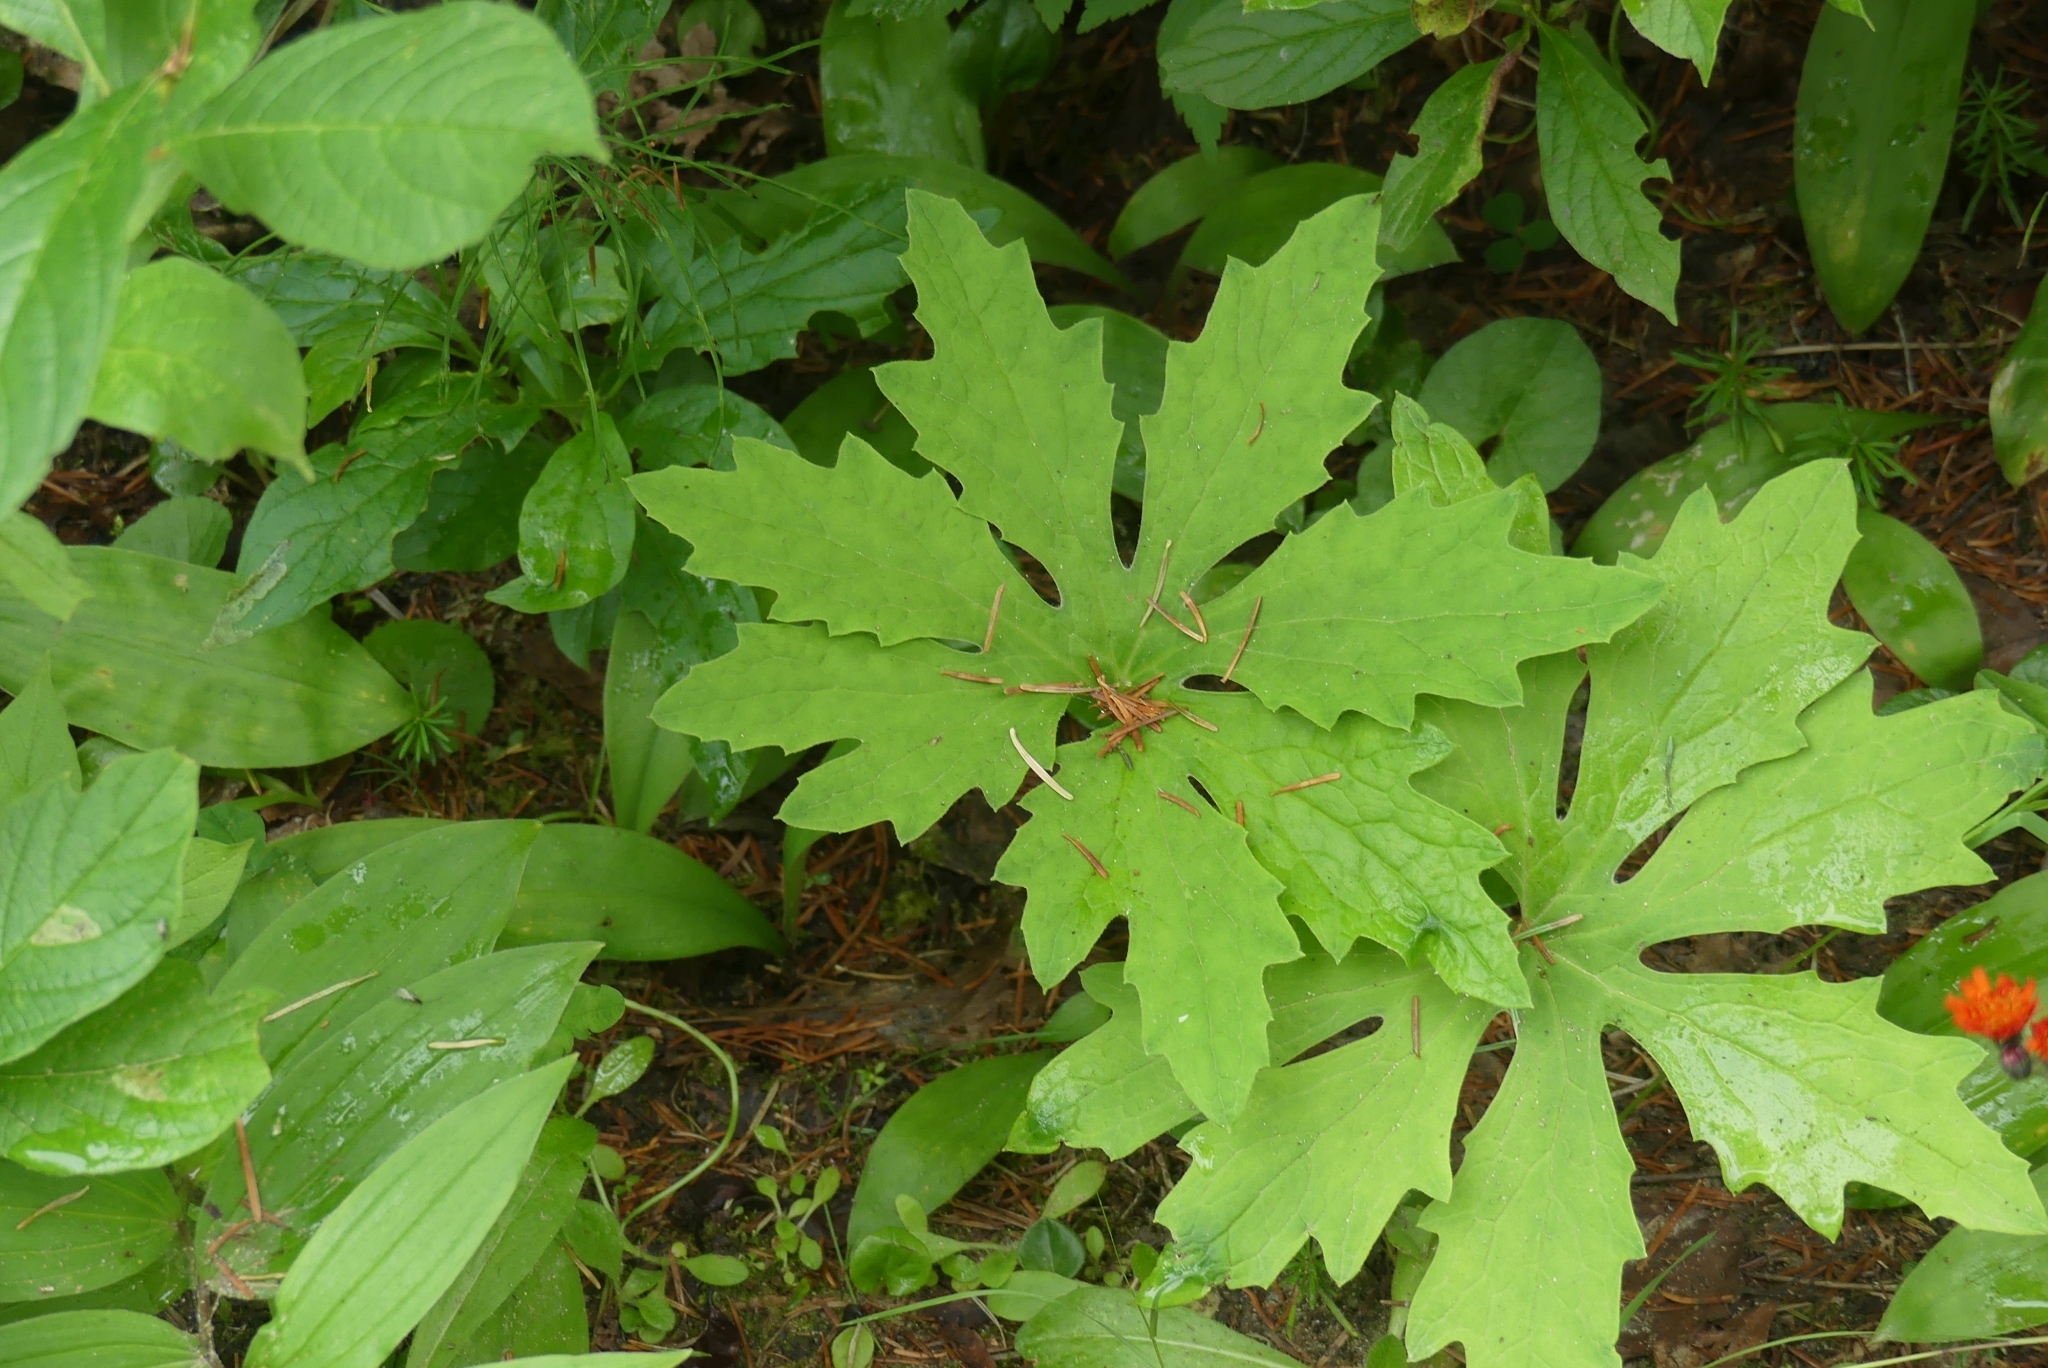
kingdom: Plantae
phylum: Tracheophyta
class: Magnoliopsida
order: Asterales
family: Asteraceae
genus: Petasites
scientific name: Petasites frigidus
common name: Arctic butterbur
